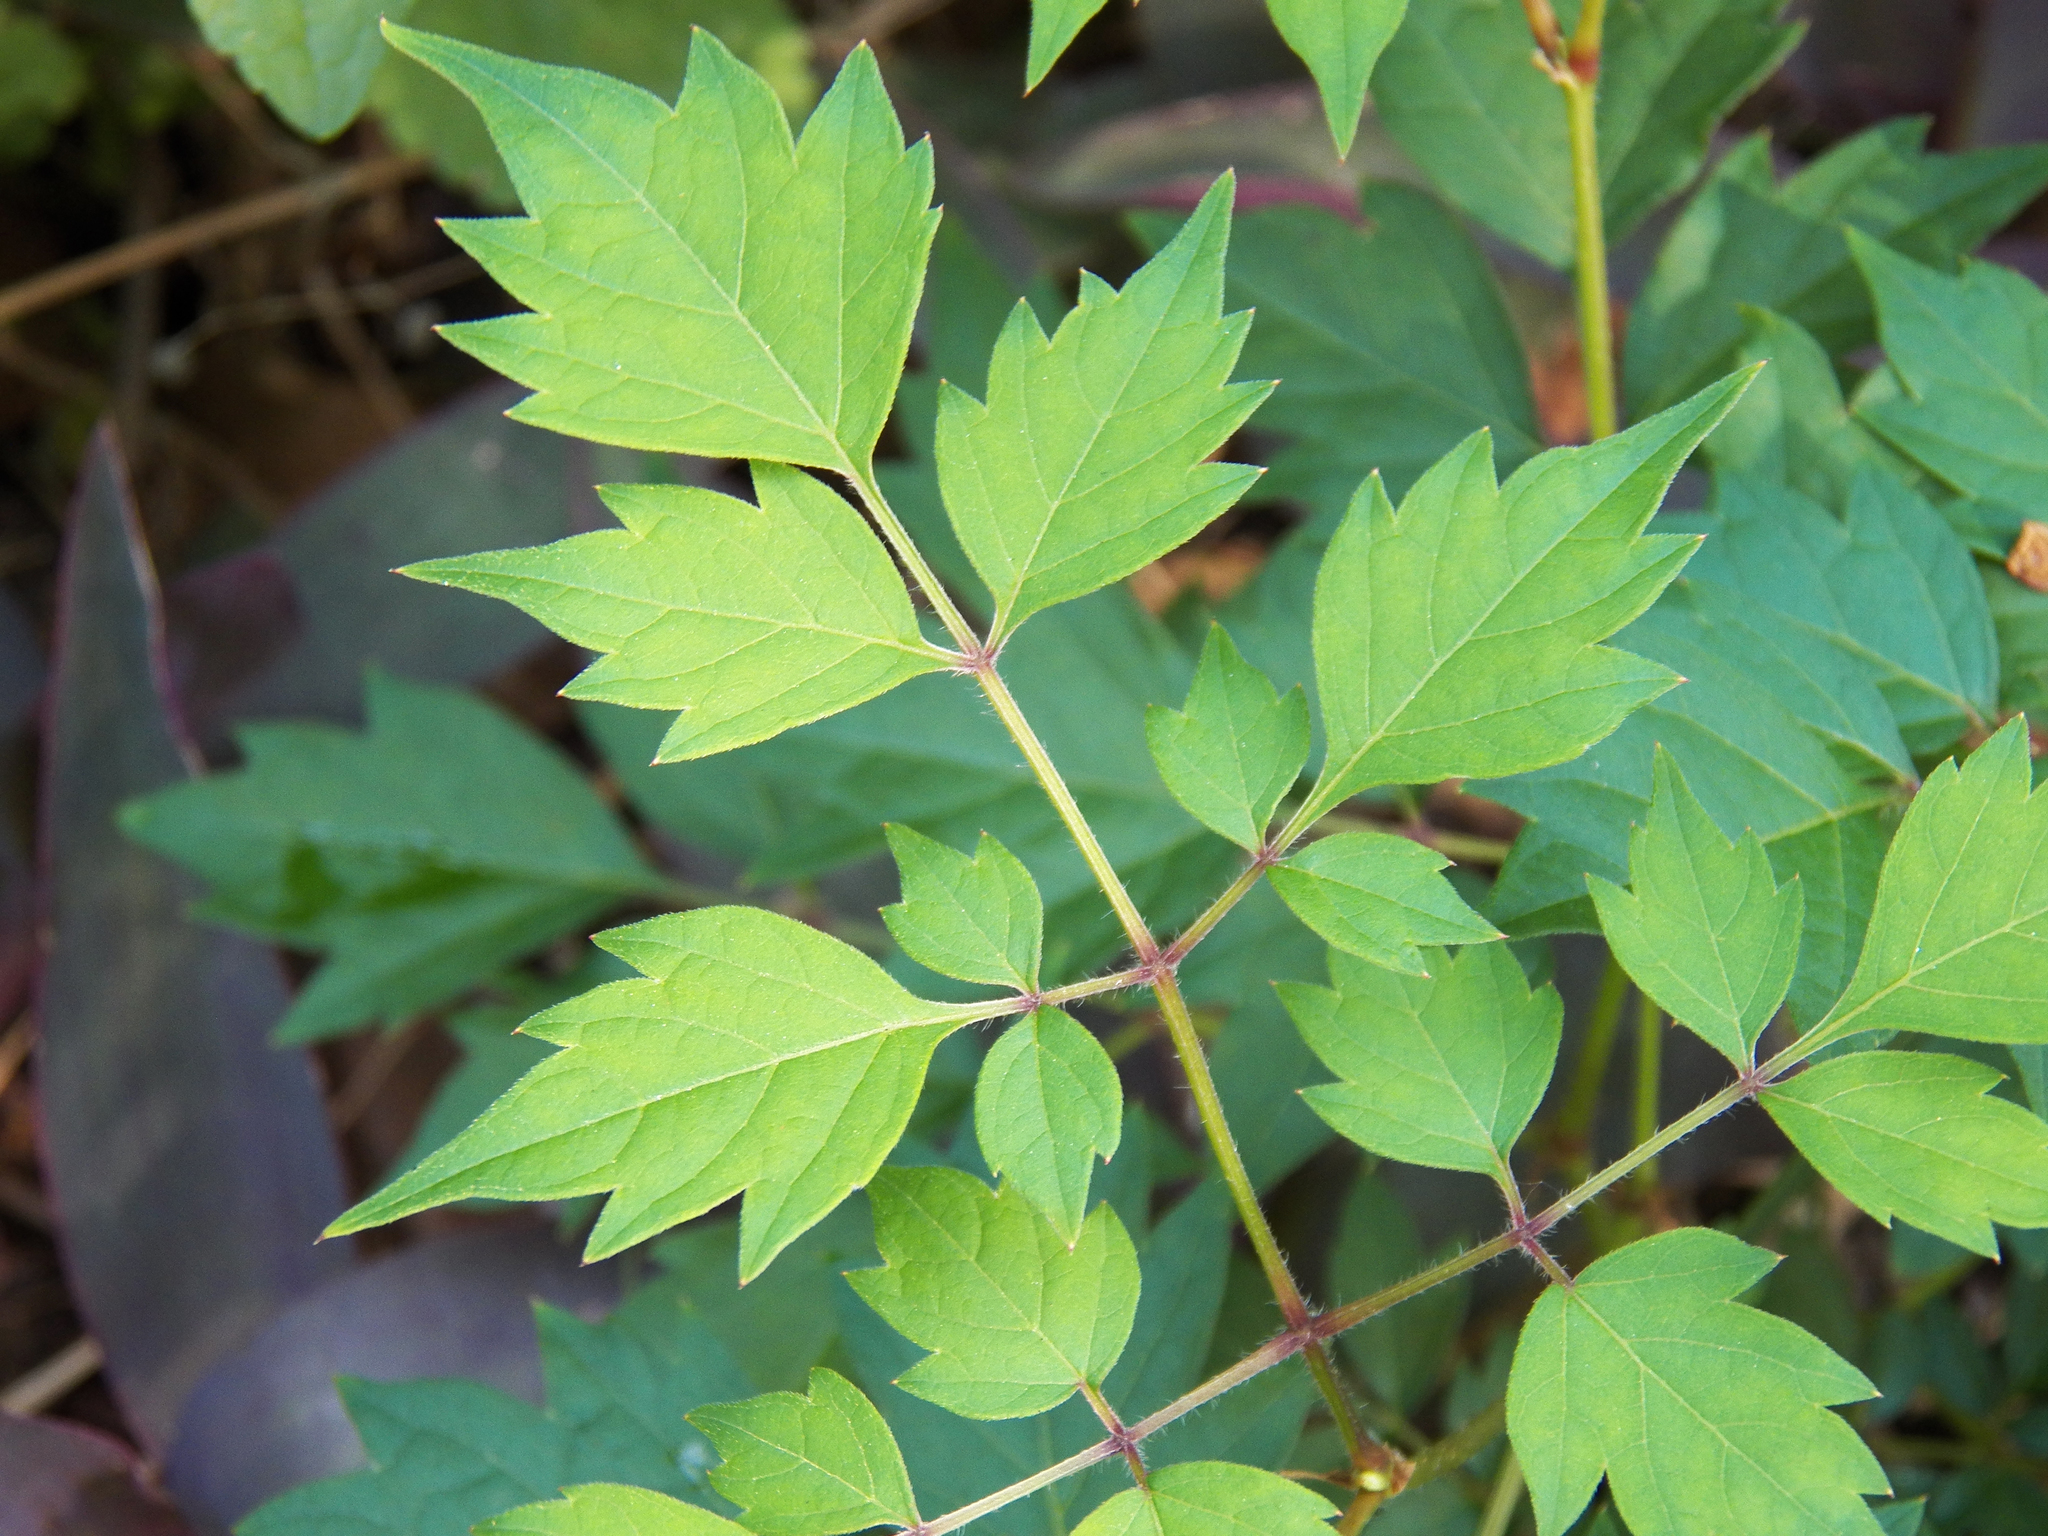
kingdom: Plantae
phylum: Tracheophyta
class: Magnoliopsida
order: Vitales
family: Vitaceae
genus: Nekemias
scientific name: Nekemias arborea
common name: Peppervine
